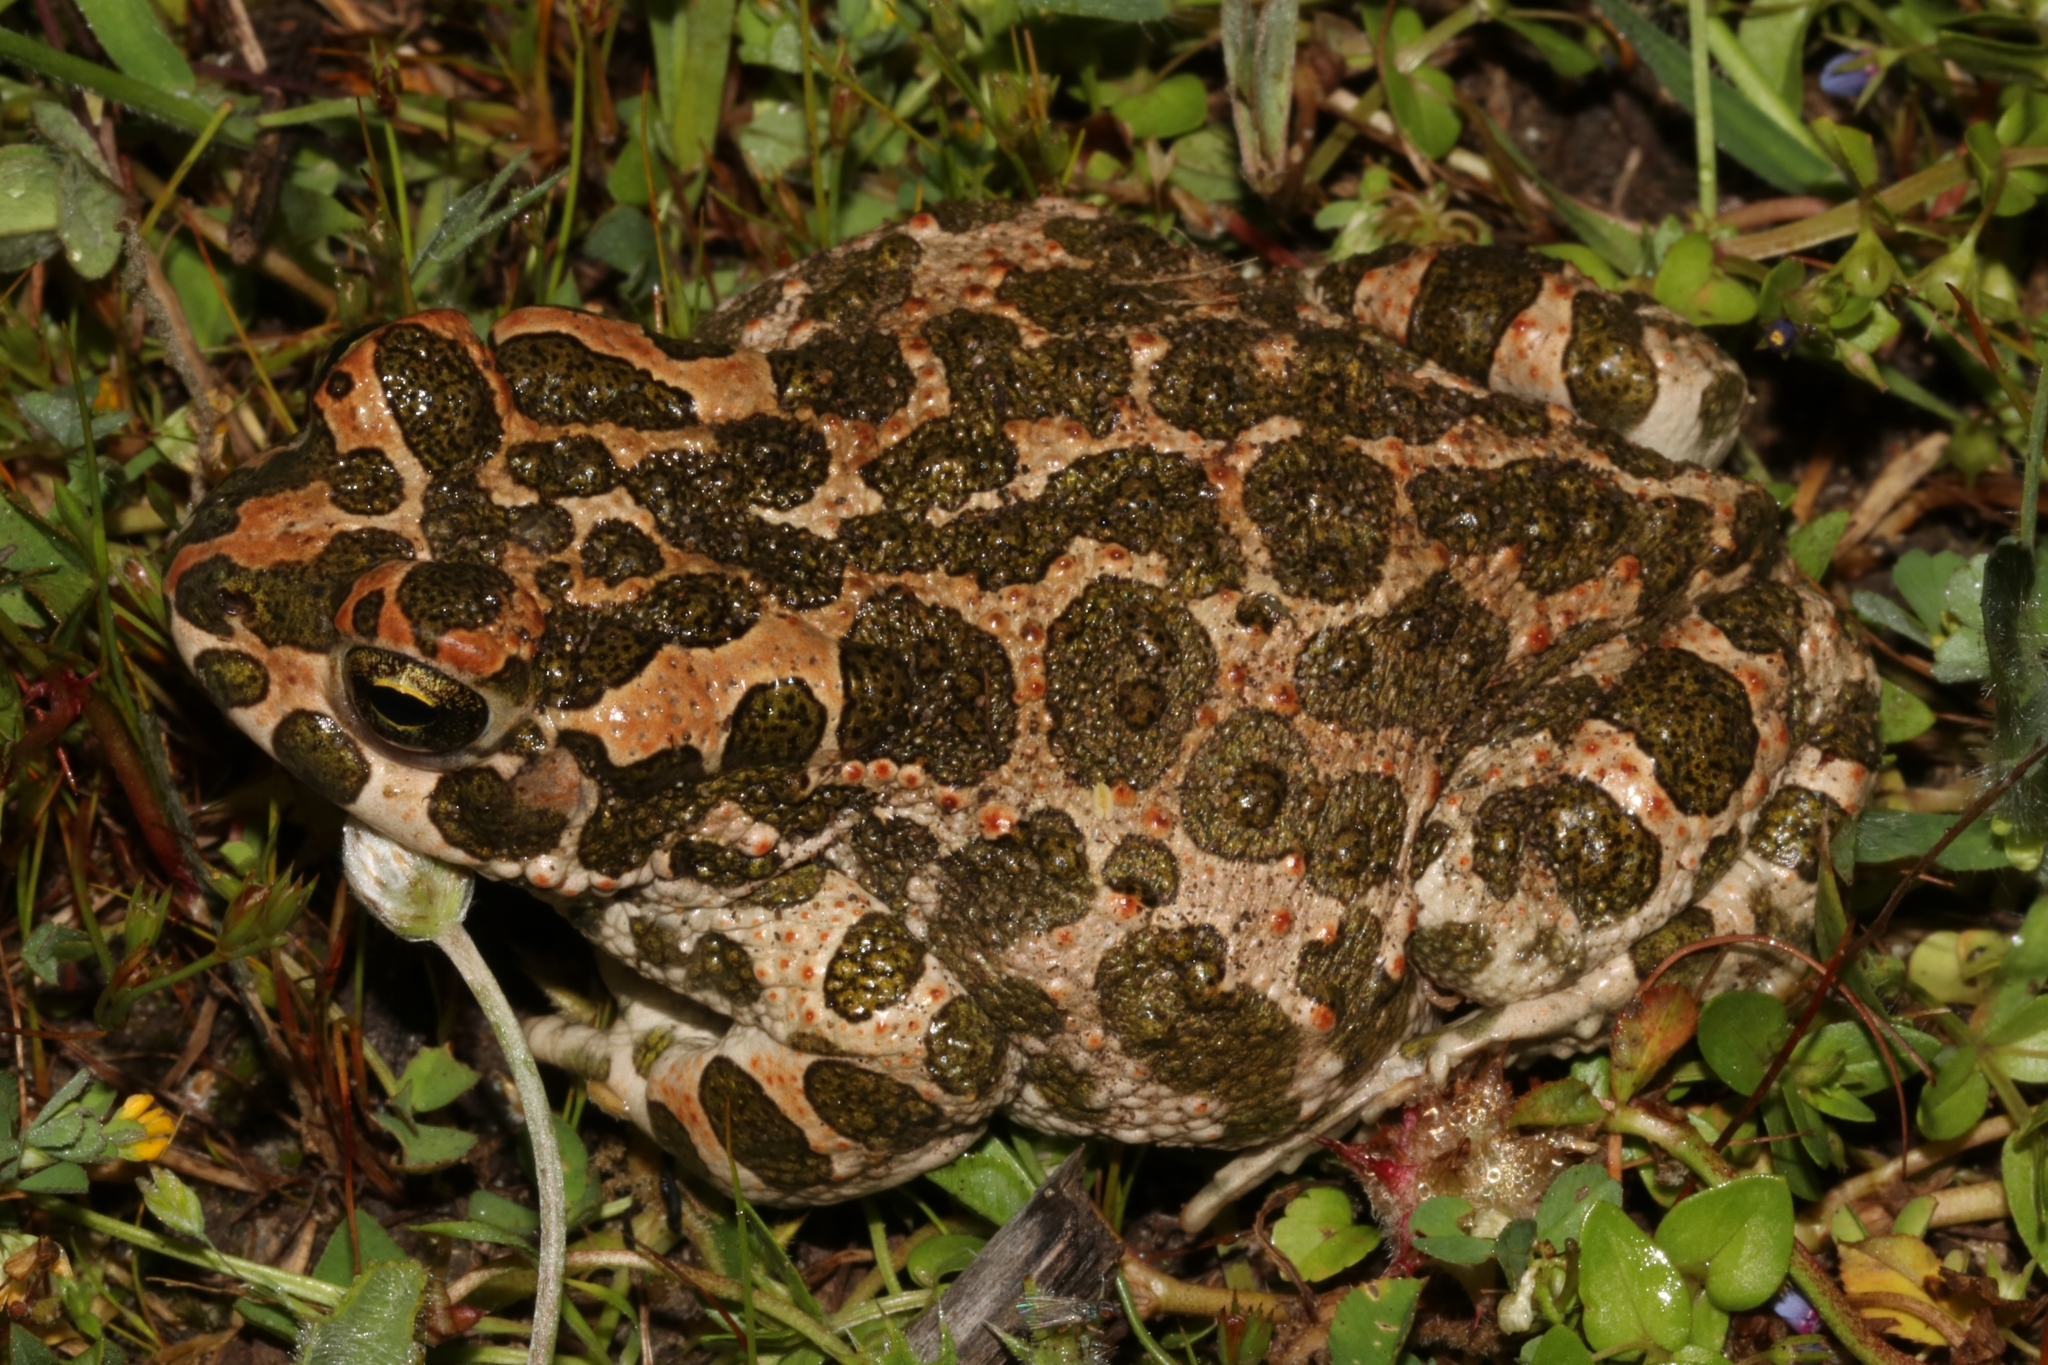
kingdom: Animalia
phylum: Chordata
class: Amphibia
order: Anura
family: Bufonidae
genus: Bufotes
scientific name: Bufotes viridis
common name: European green toad
